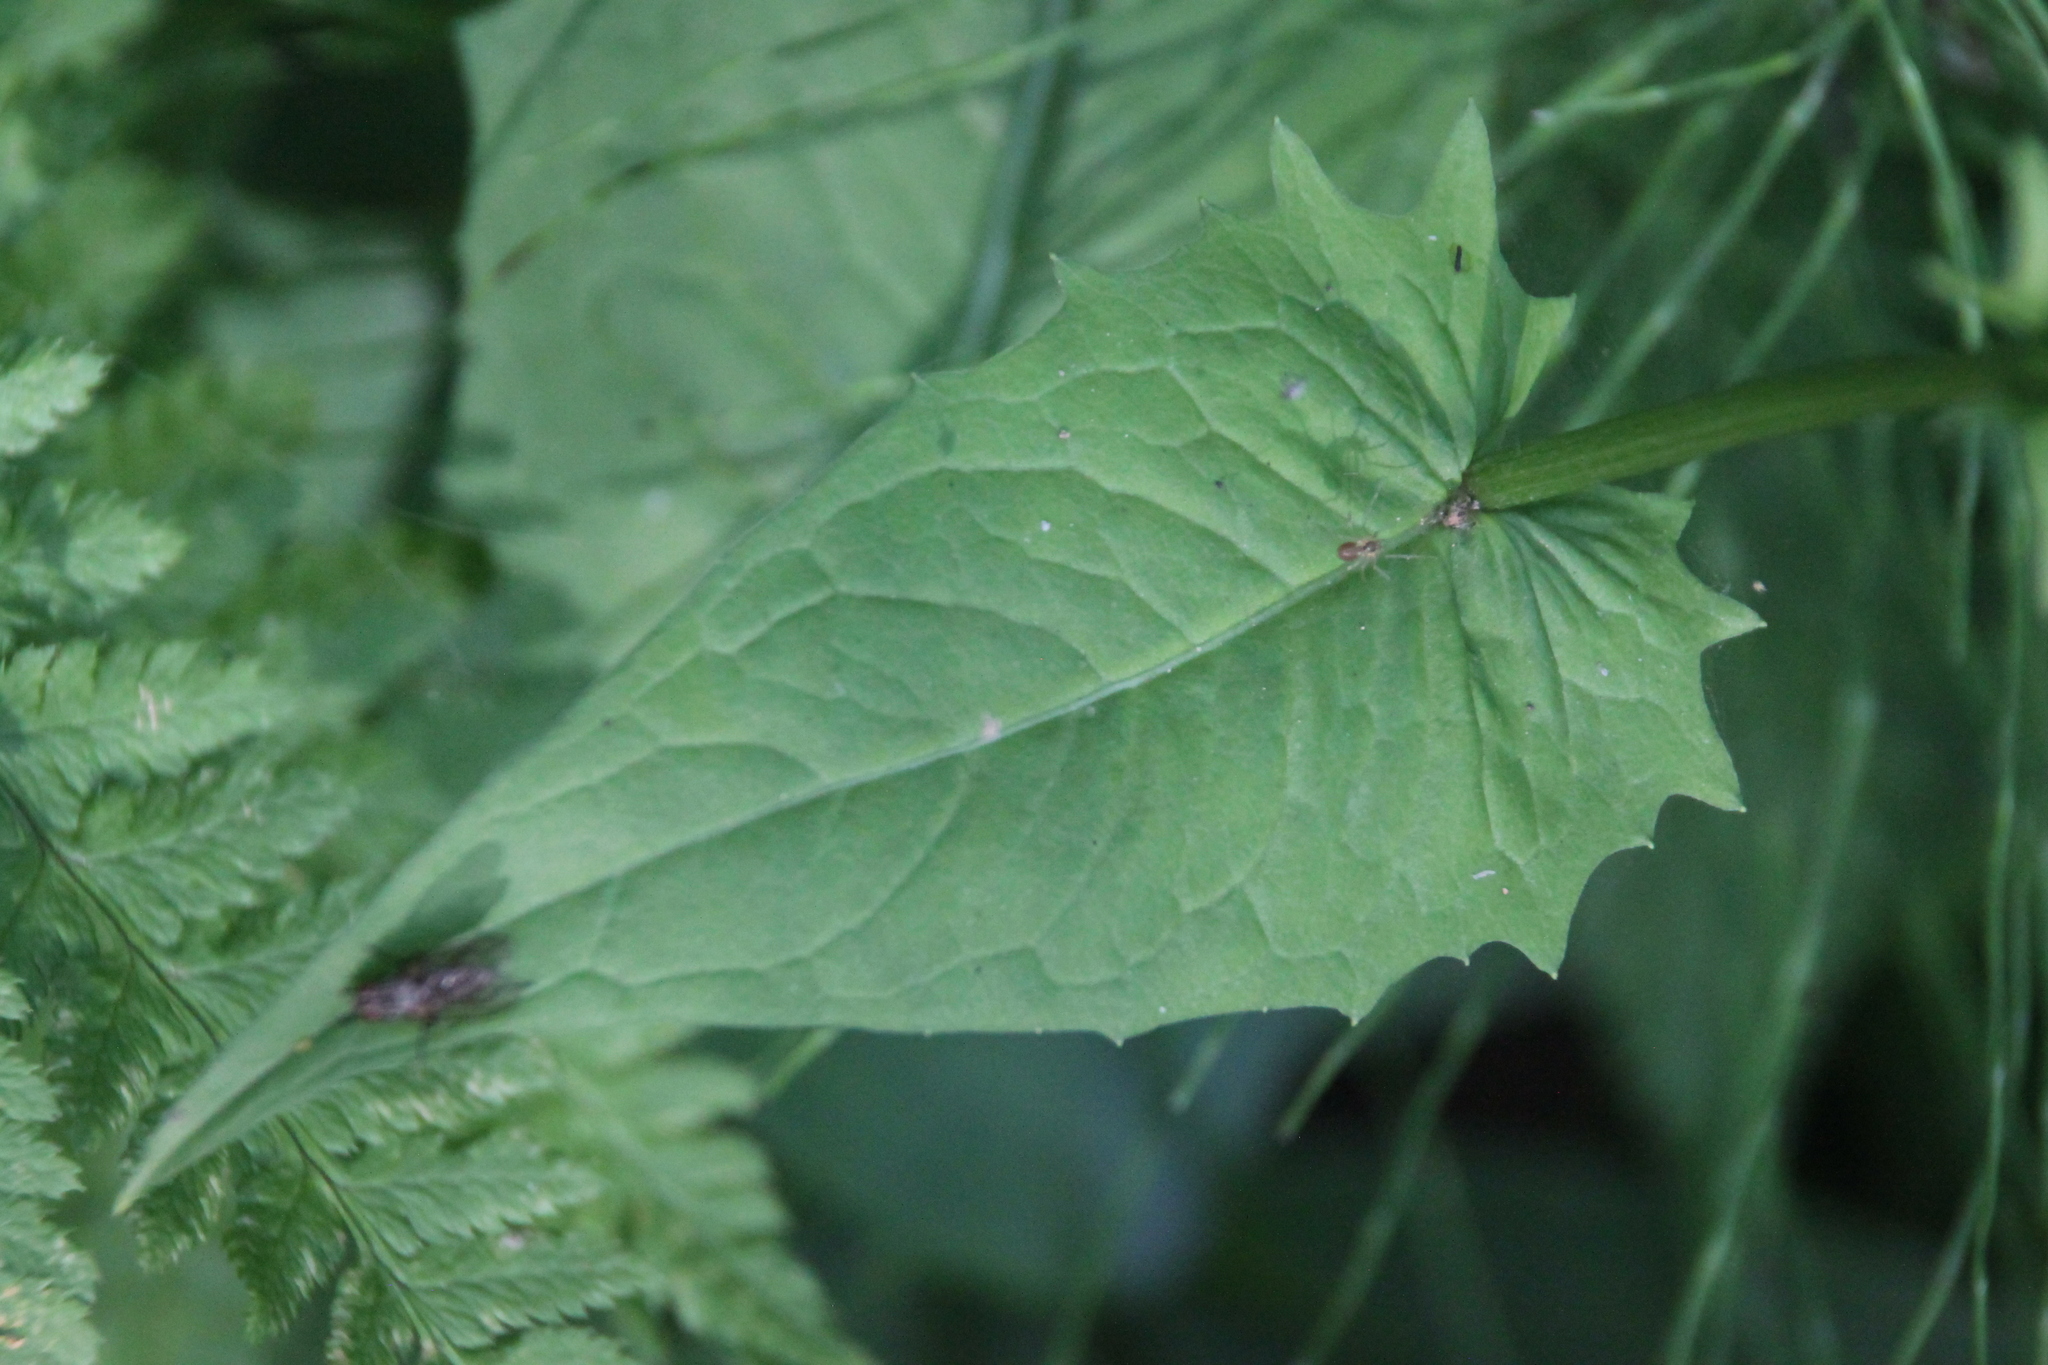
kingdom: Plantae
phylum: Tracheophyta
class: Magnoliopsida
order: Asterales
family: Asteraceae
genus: Crepis
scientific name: Crepis paludosa
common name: Marsh hawk's-beard
